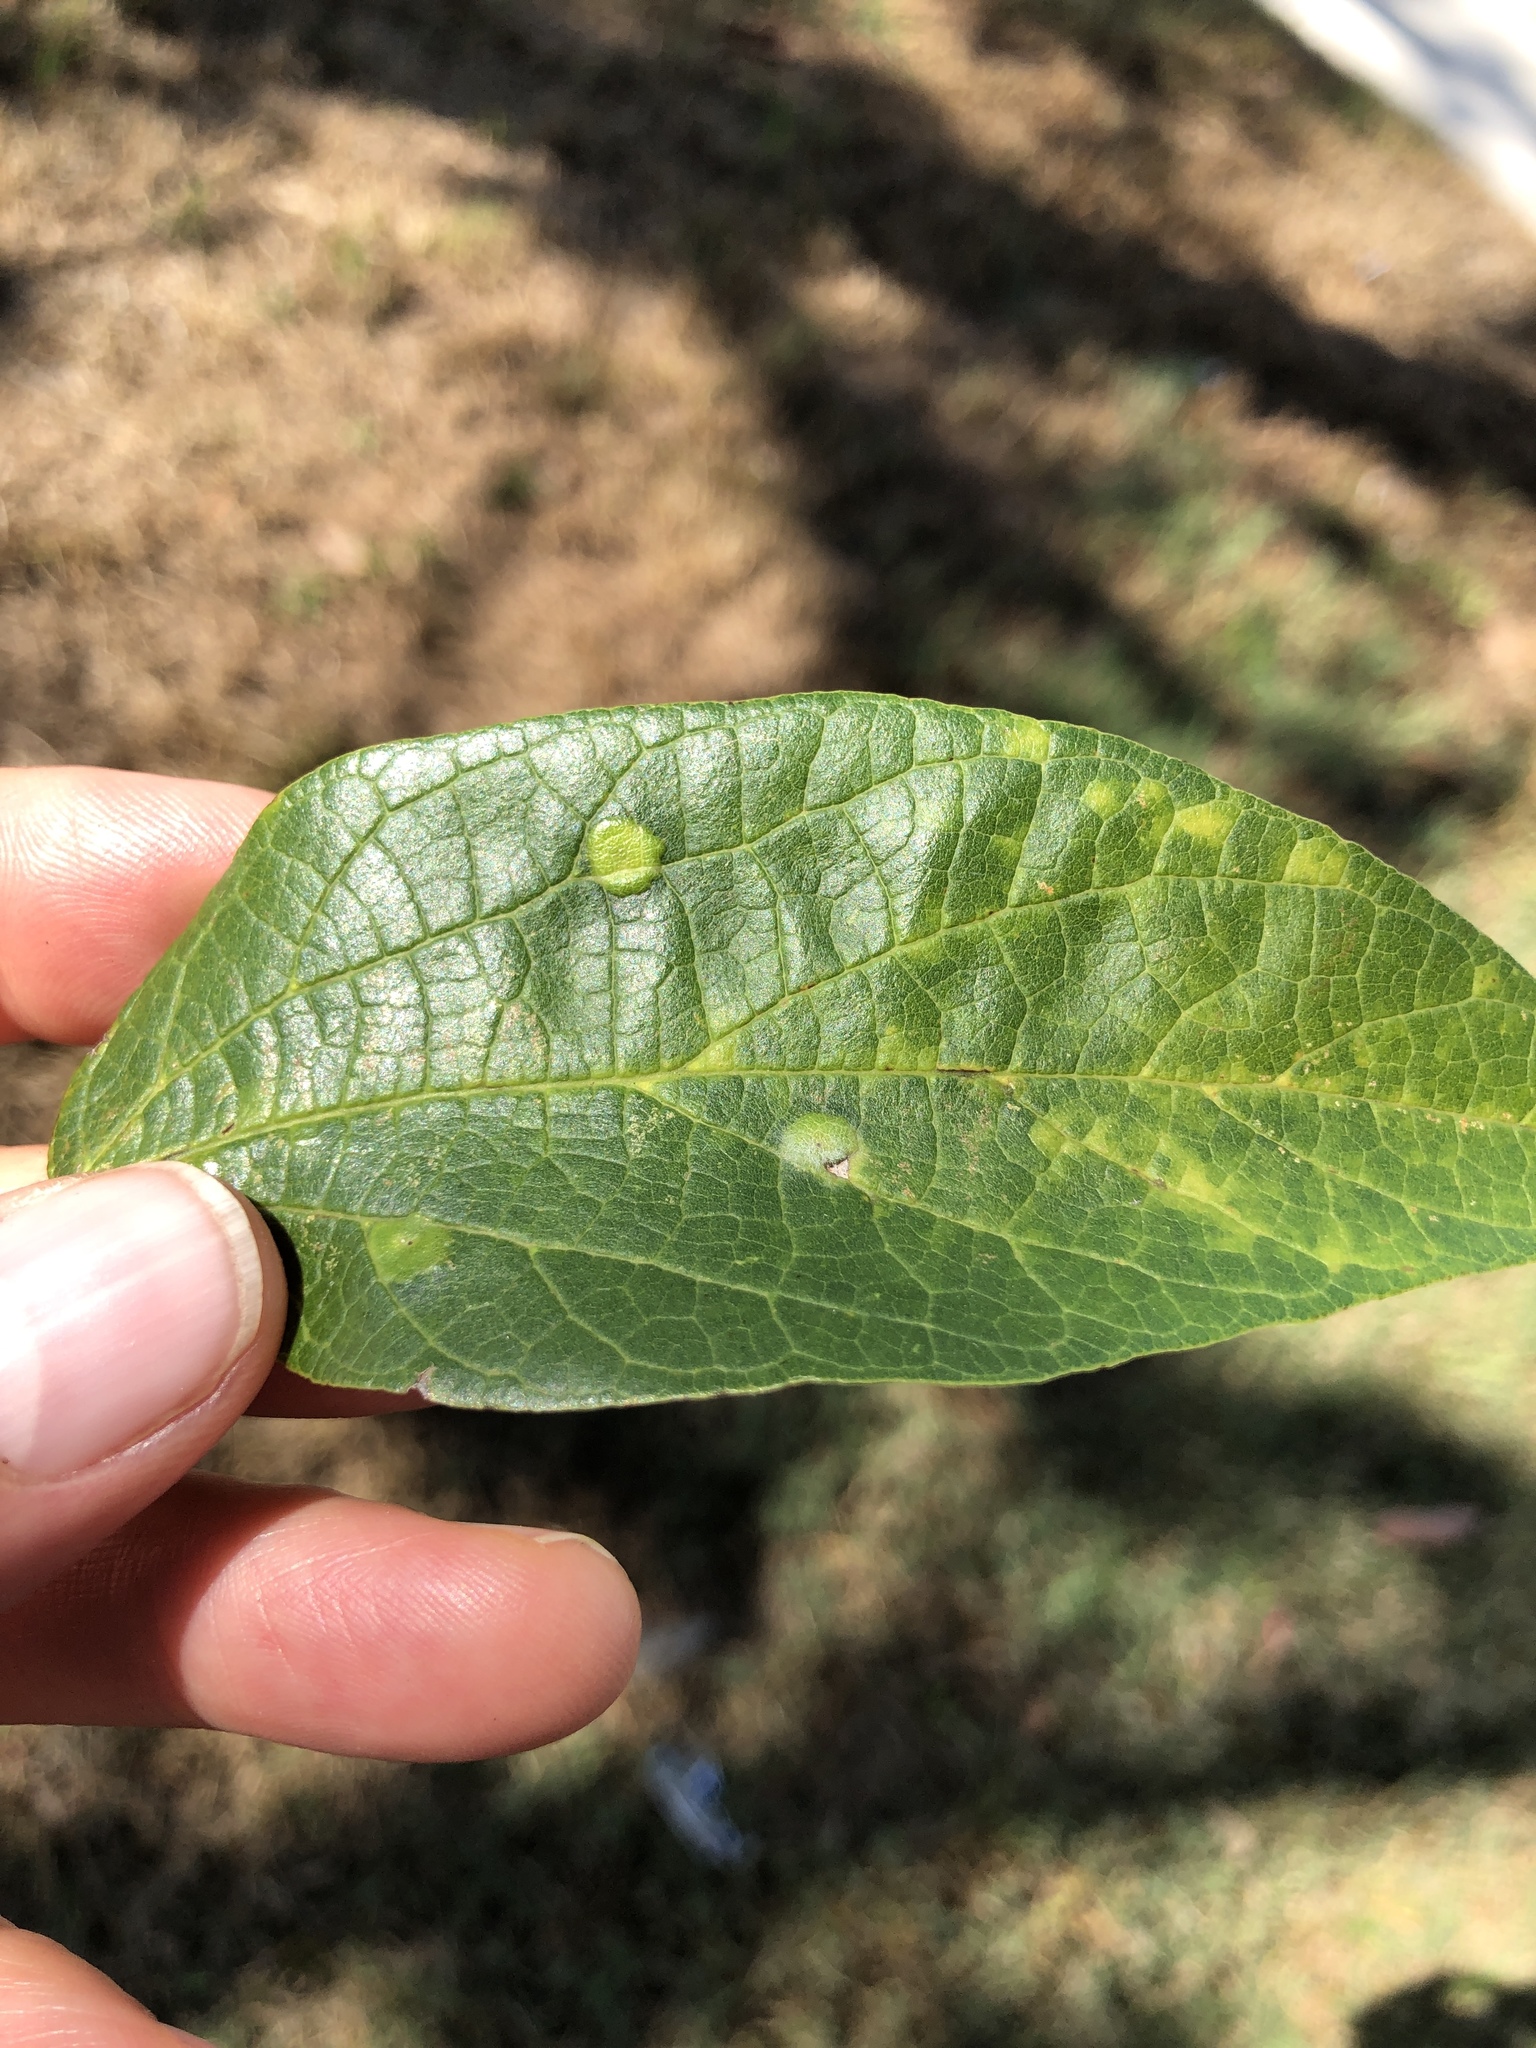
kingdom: Animalia
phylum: Arthropoda
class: Insecta
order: Hemiptera
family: Aphalaridae
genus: Pachypsylla
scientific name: Pachypsylla celtidisvesicula
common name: Hackberry blister gall psyllid
